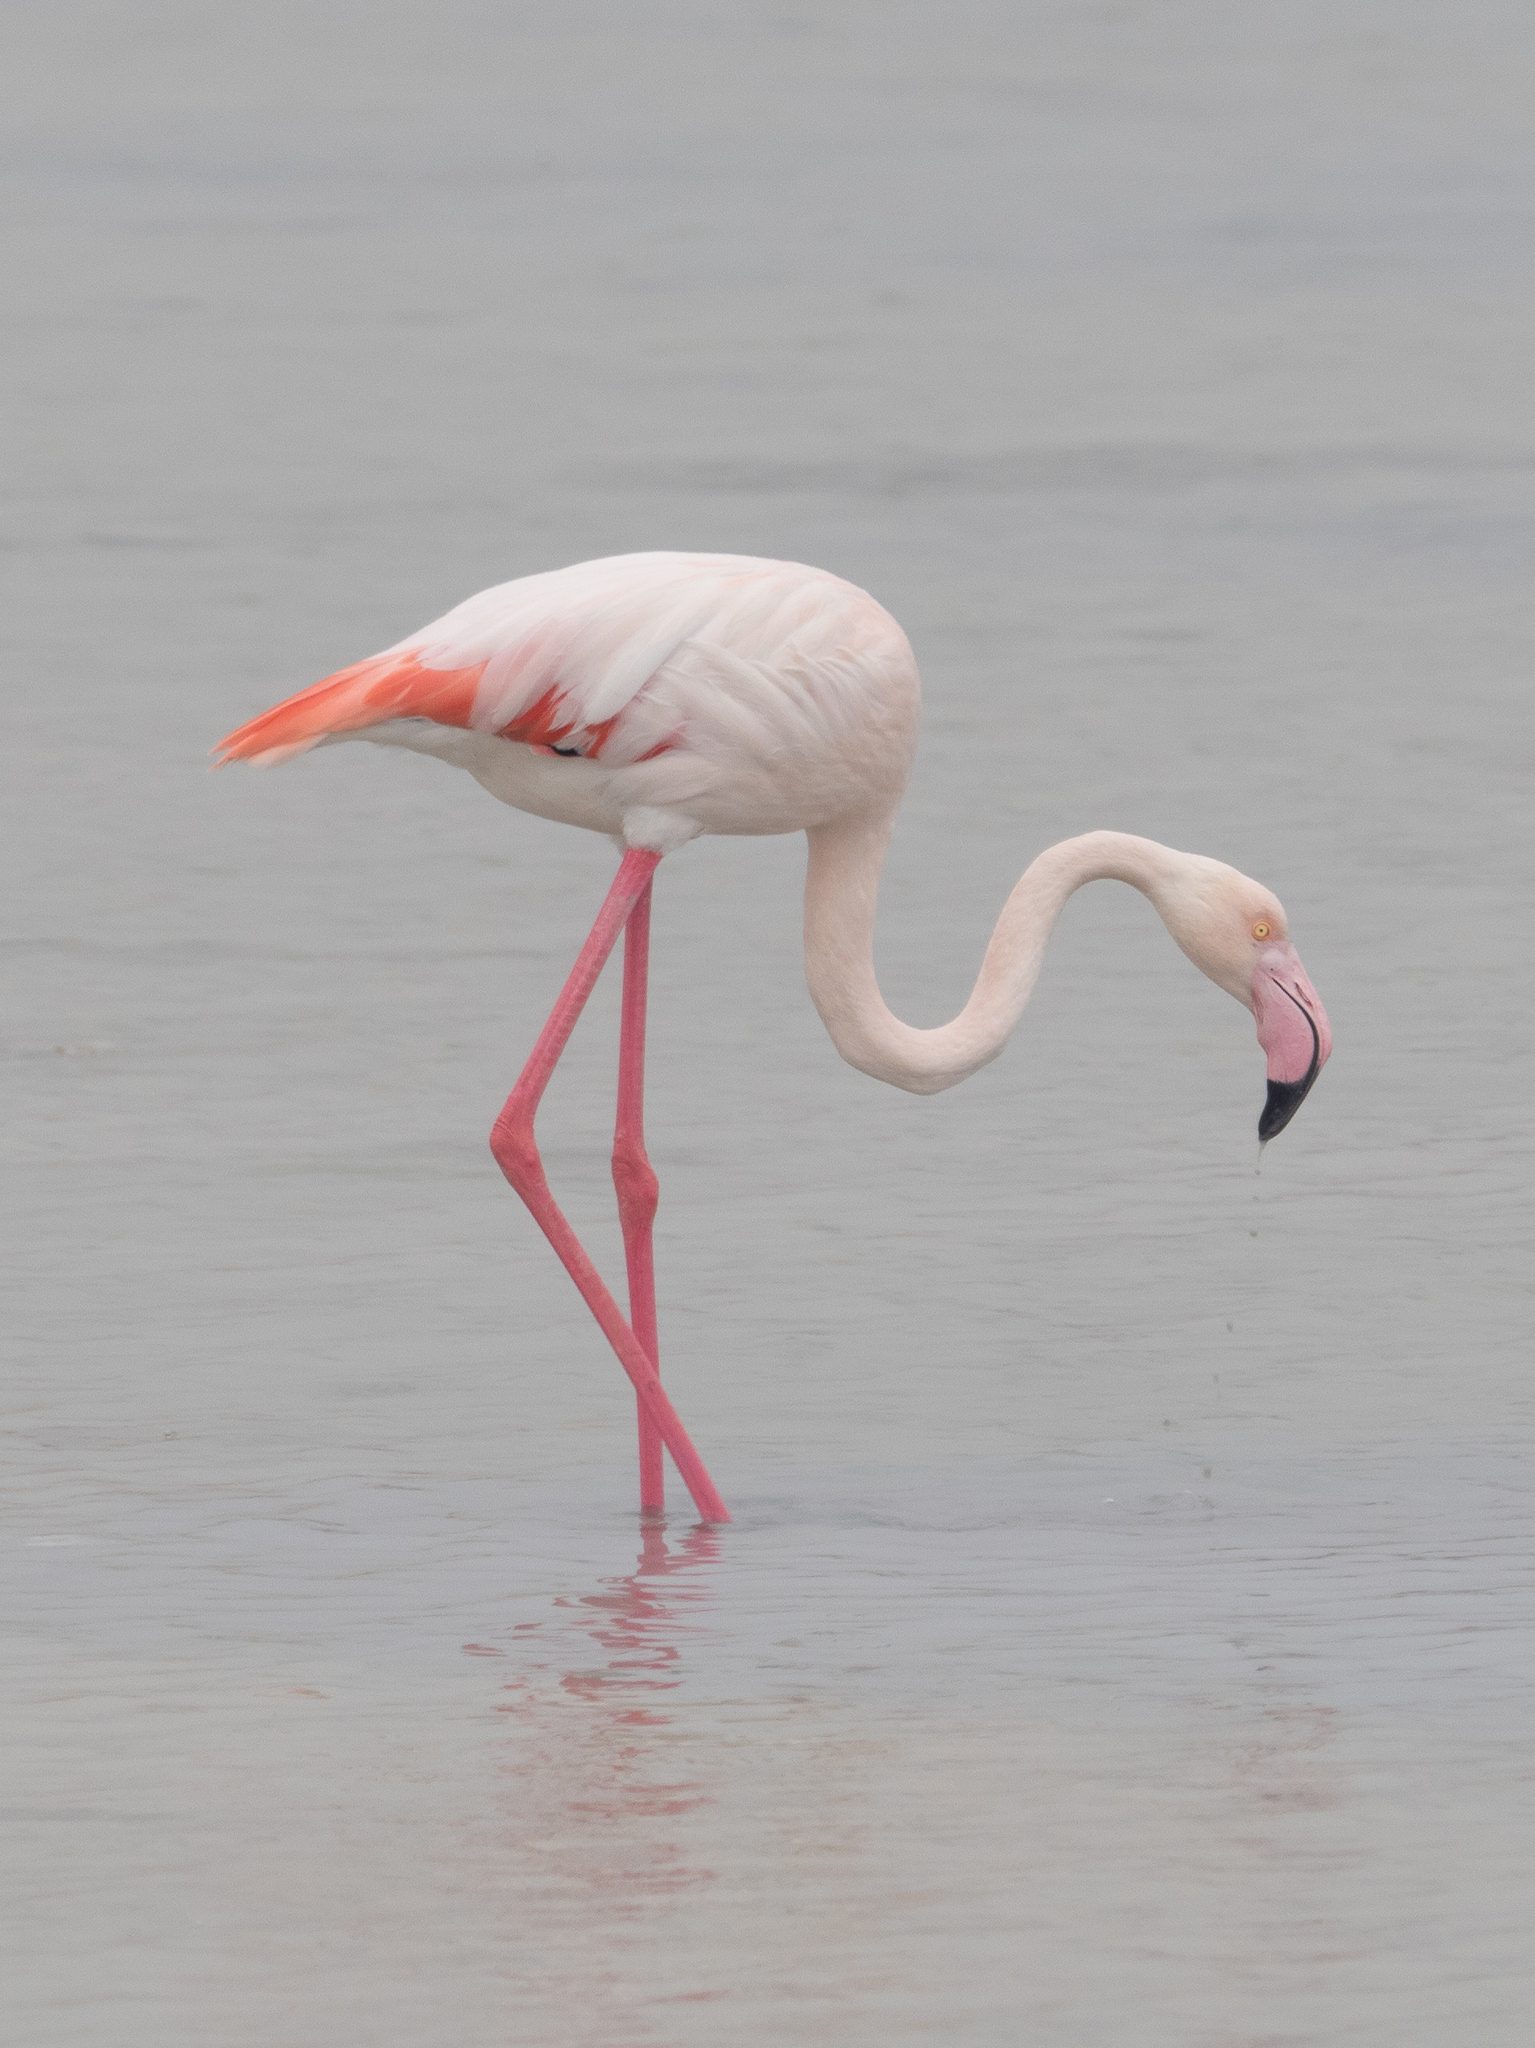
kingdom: Animalia
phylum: Chordata
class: Aves
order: Phoenicopteriformes
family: Phoenicopteridae
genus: Phoenicopterus
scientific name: Phoenicopterus roseus
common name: Greater flamingo
